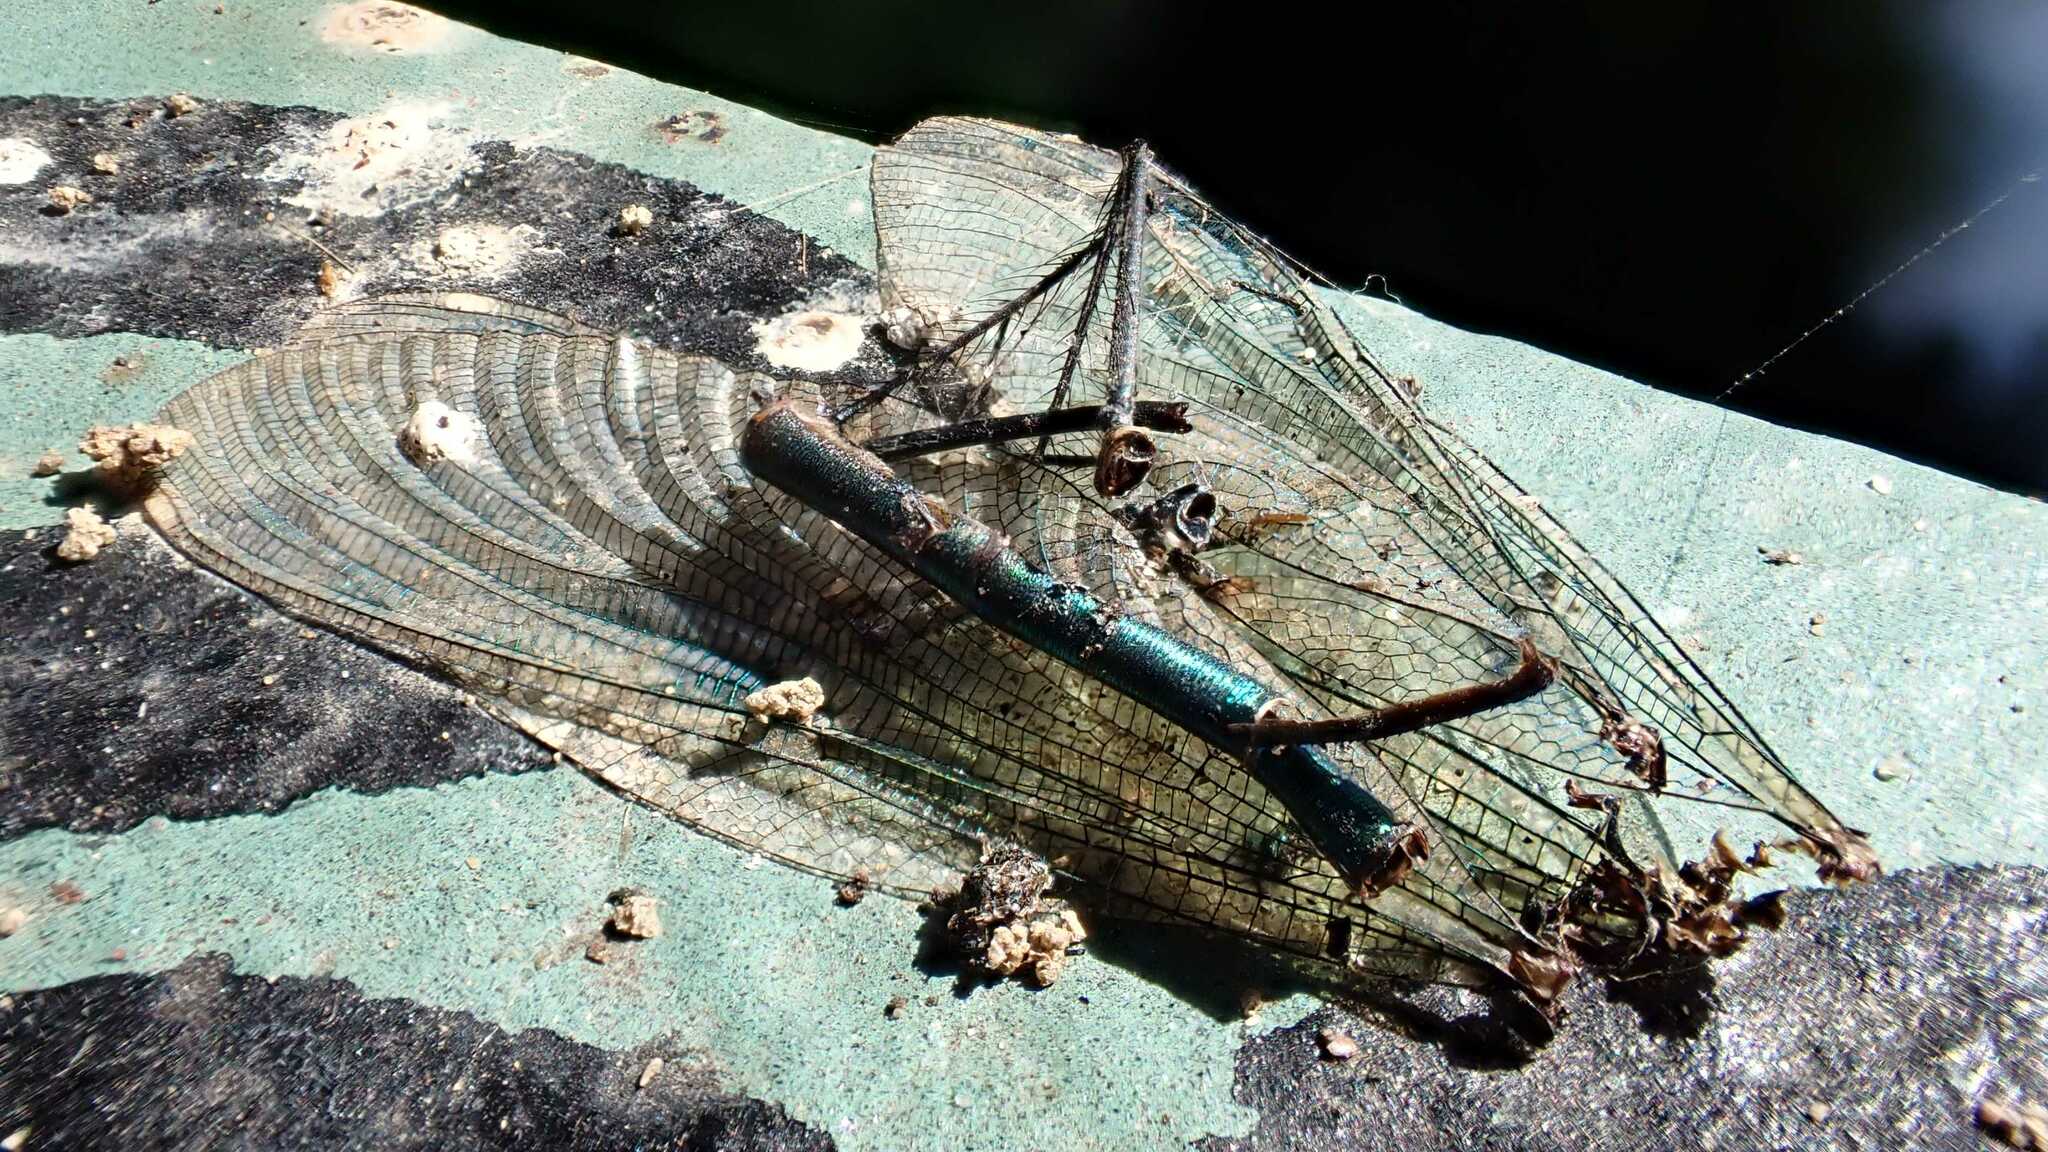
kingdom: Animalia
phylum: Arthropoda
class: Insecta
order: Odonata
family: Calopterygidae
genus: Calopteryx
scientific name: Calopteryx splendens
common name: Banded demoiselle
